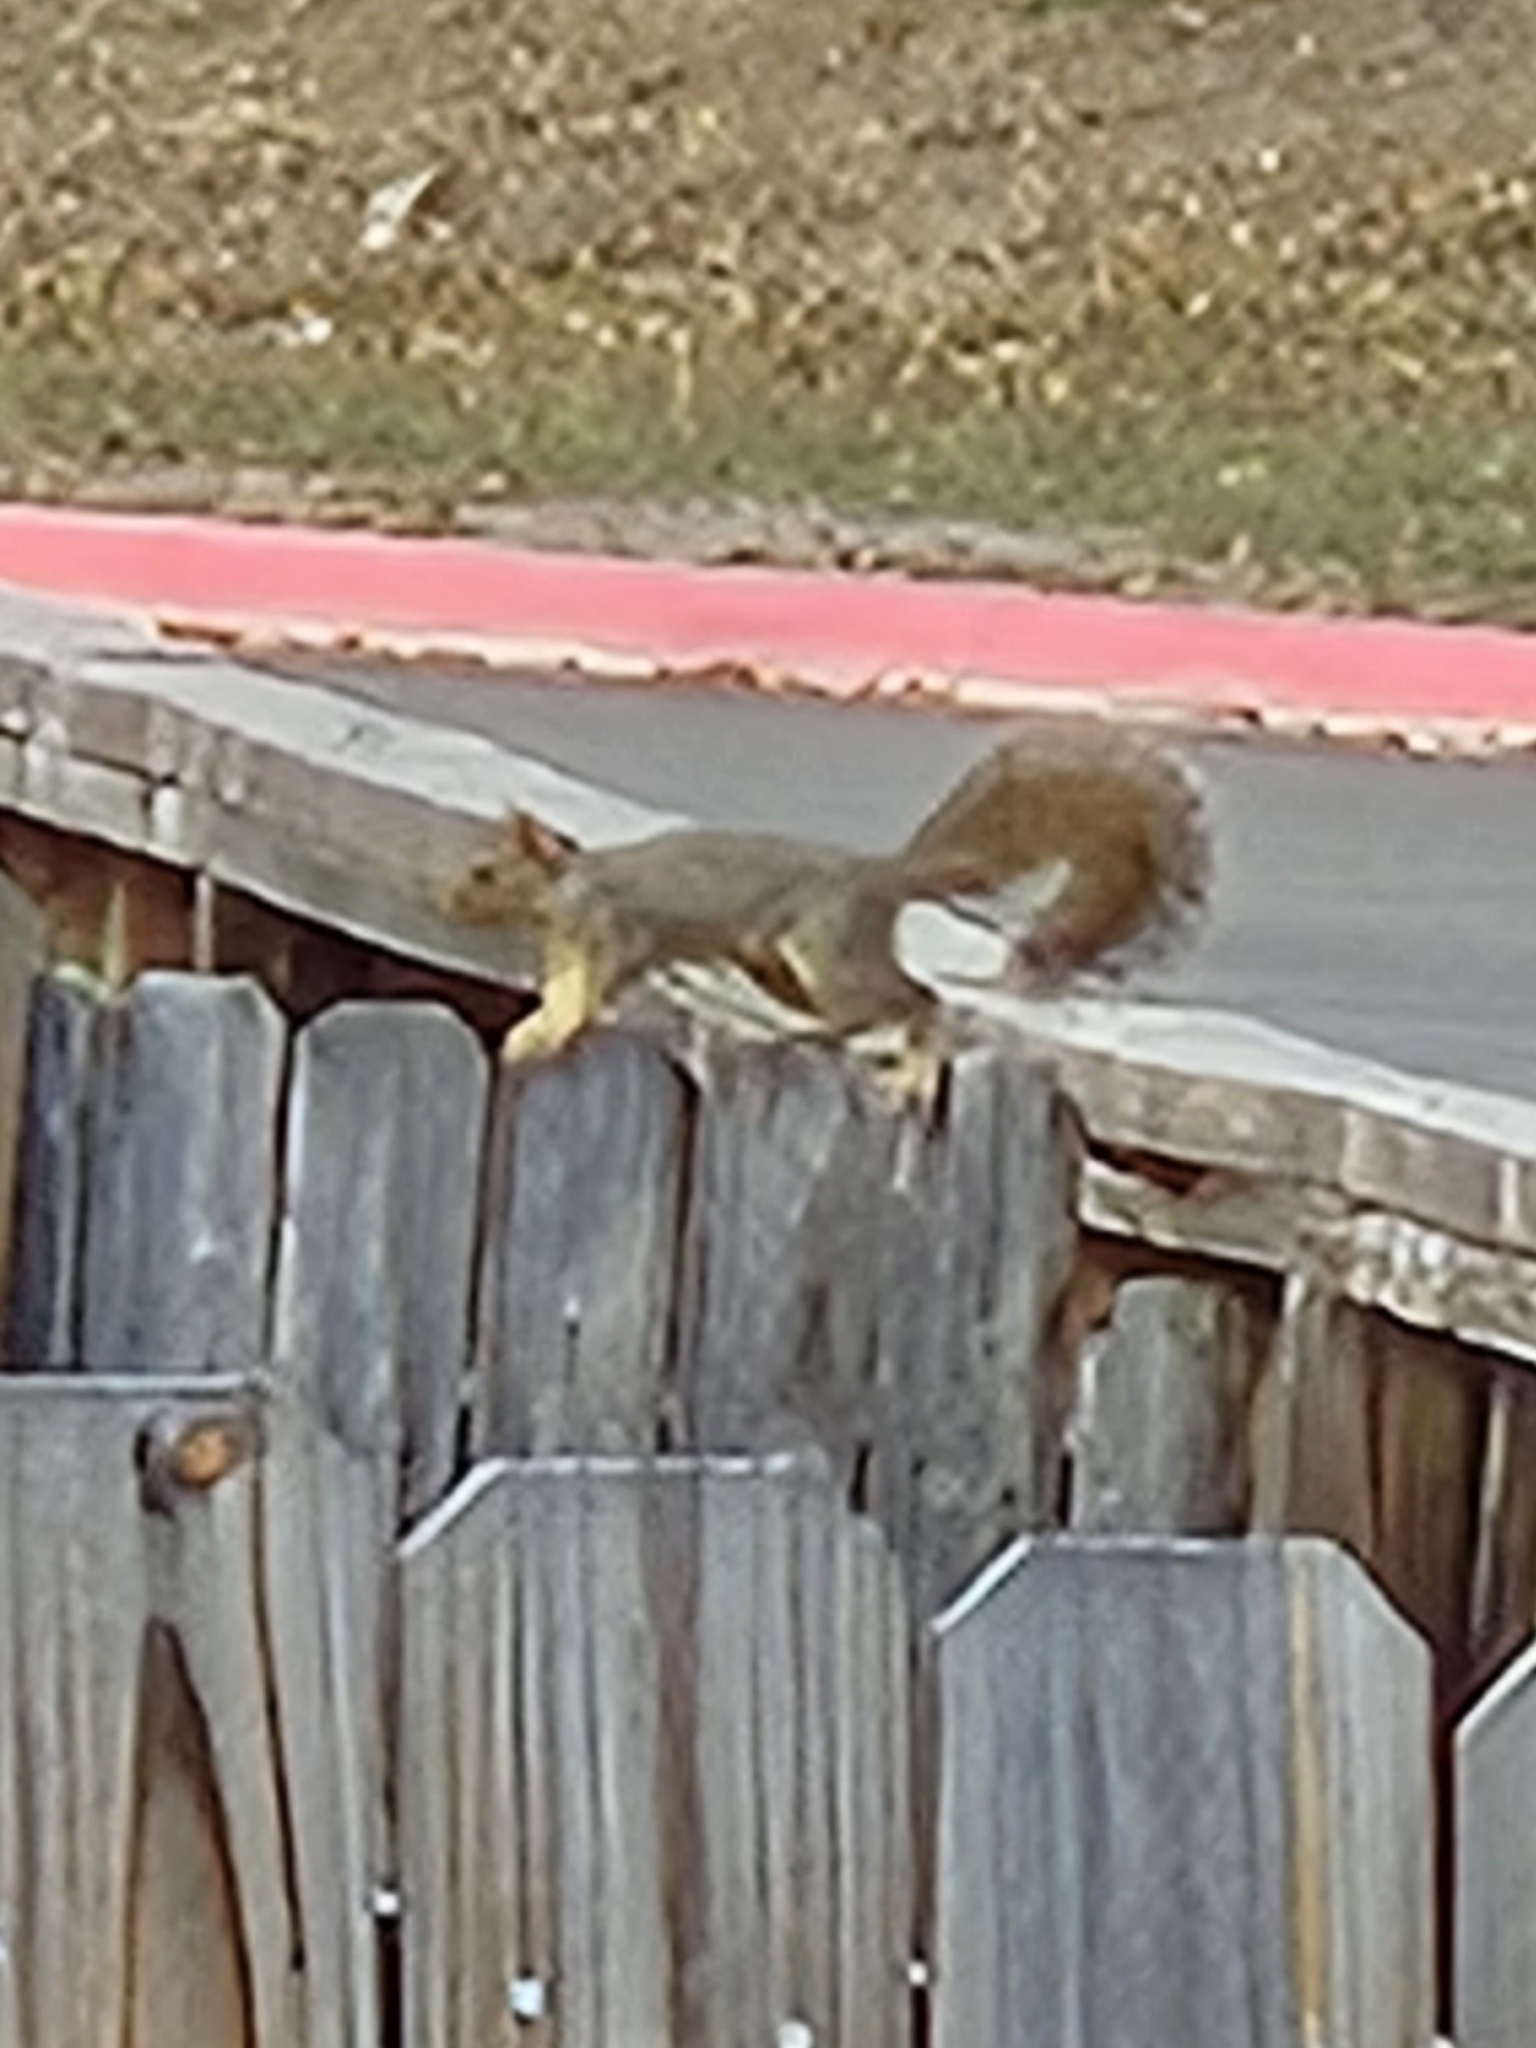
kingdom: Animalia
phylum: Chordata
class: Mammalia
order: Rodentia
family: Sciuridae
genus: Sciurus
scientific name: Sciurus niger
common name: Fox squirrel
